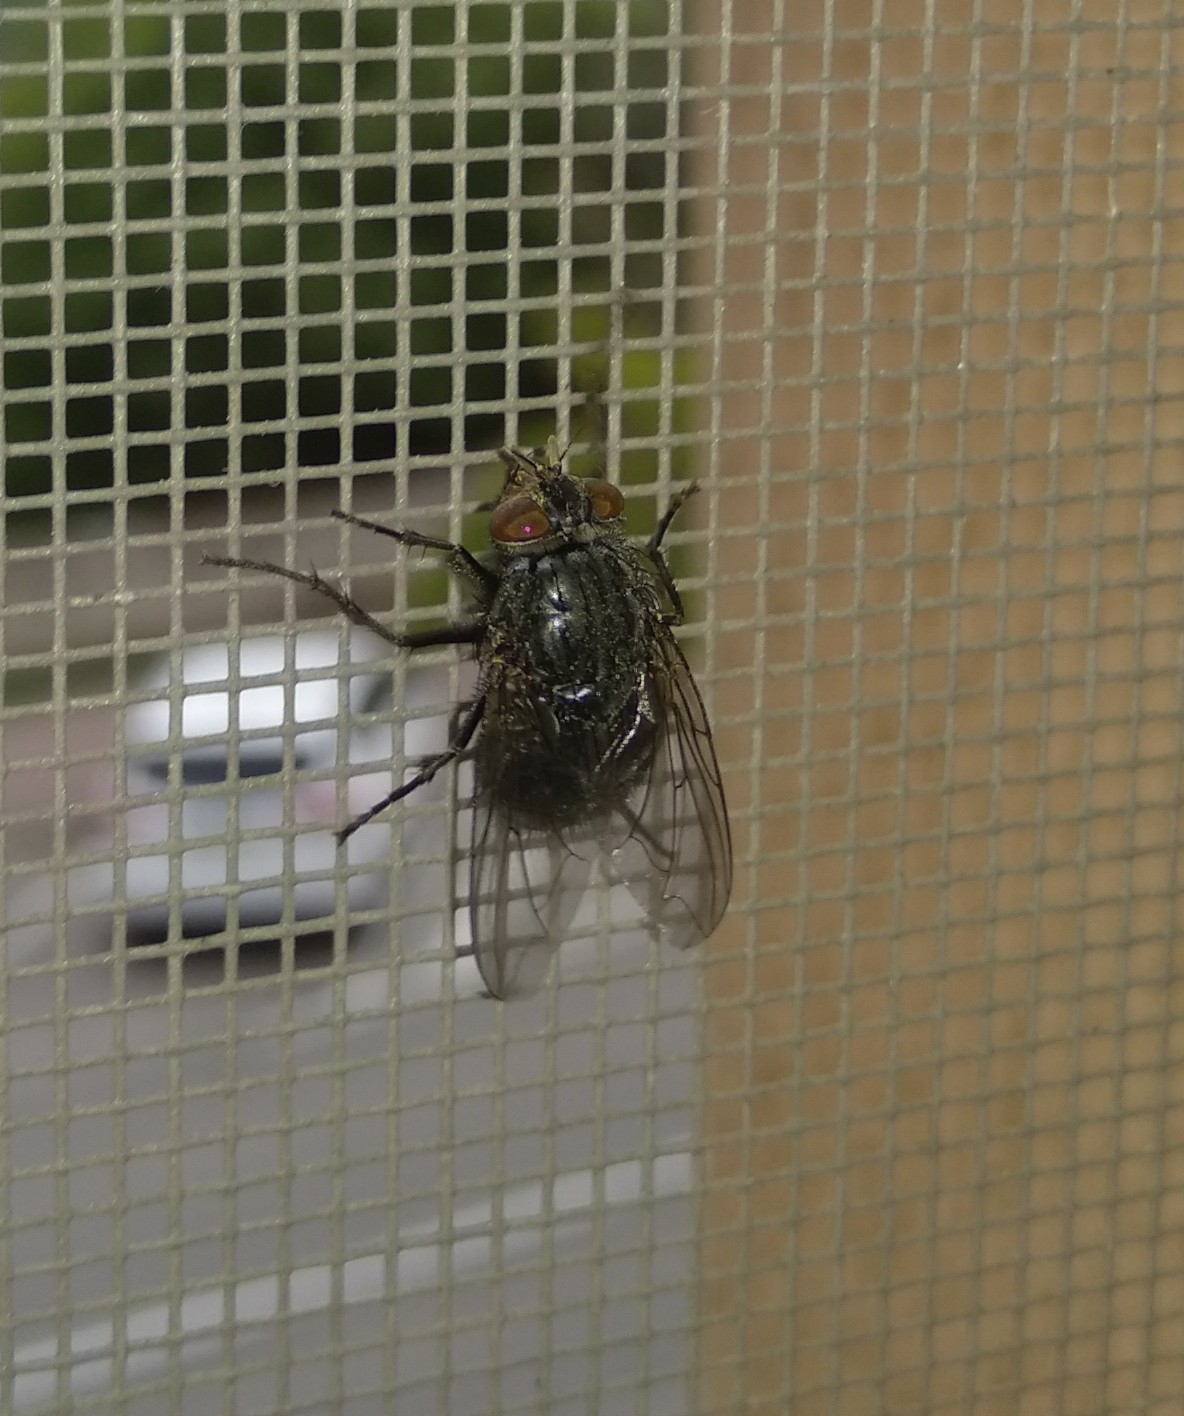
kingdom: Animalia
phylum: Arthropoda
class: Insecta
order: Diptera
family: Calliphoridae
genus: Calliphora
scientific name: Calliphora vicina
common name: Common blow flie
